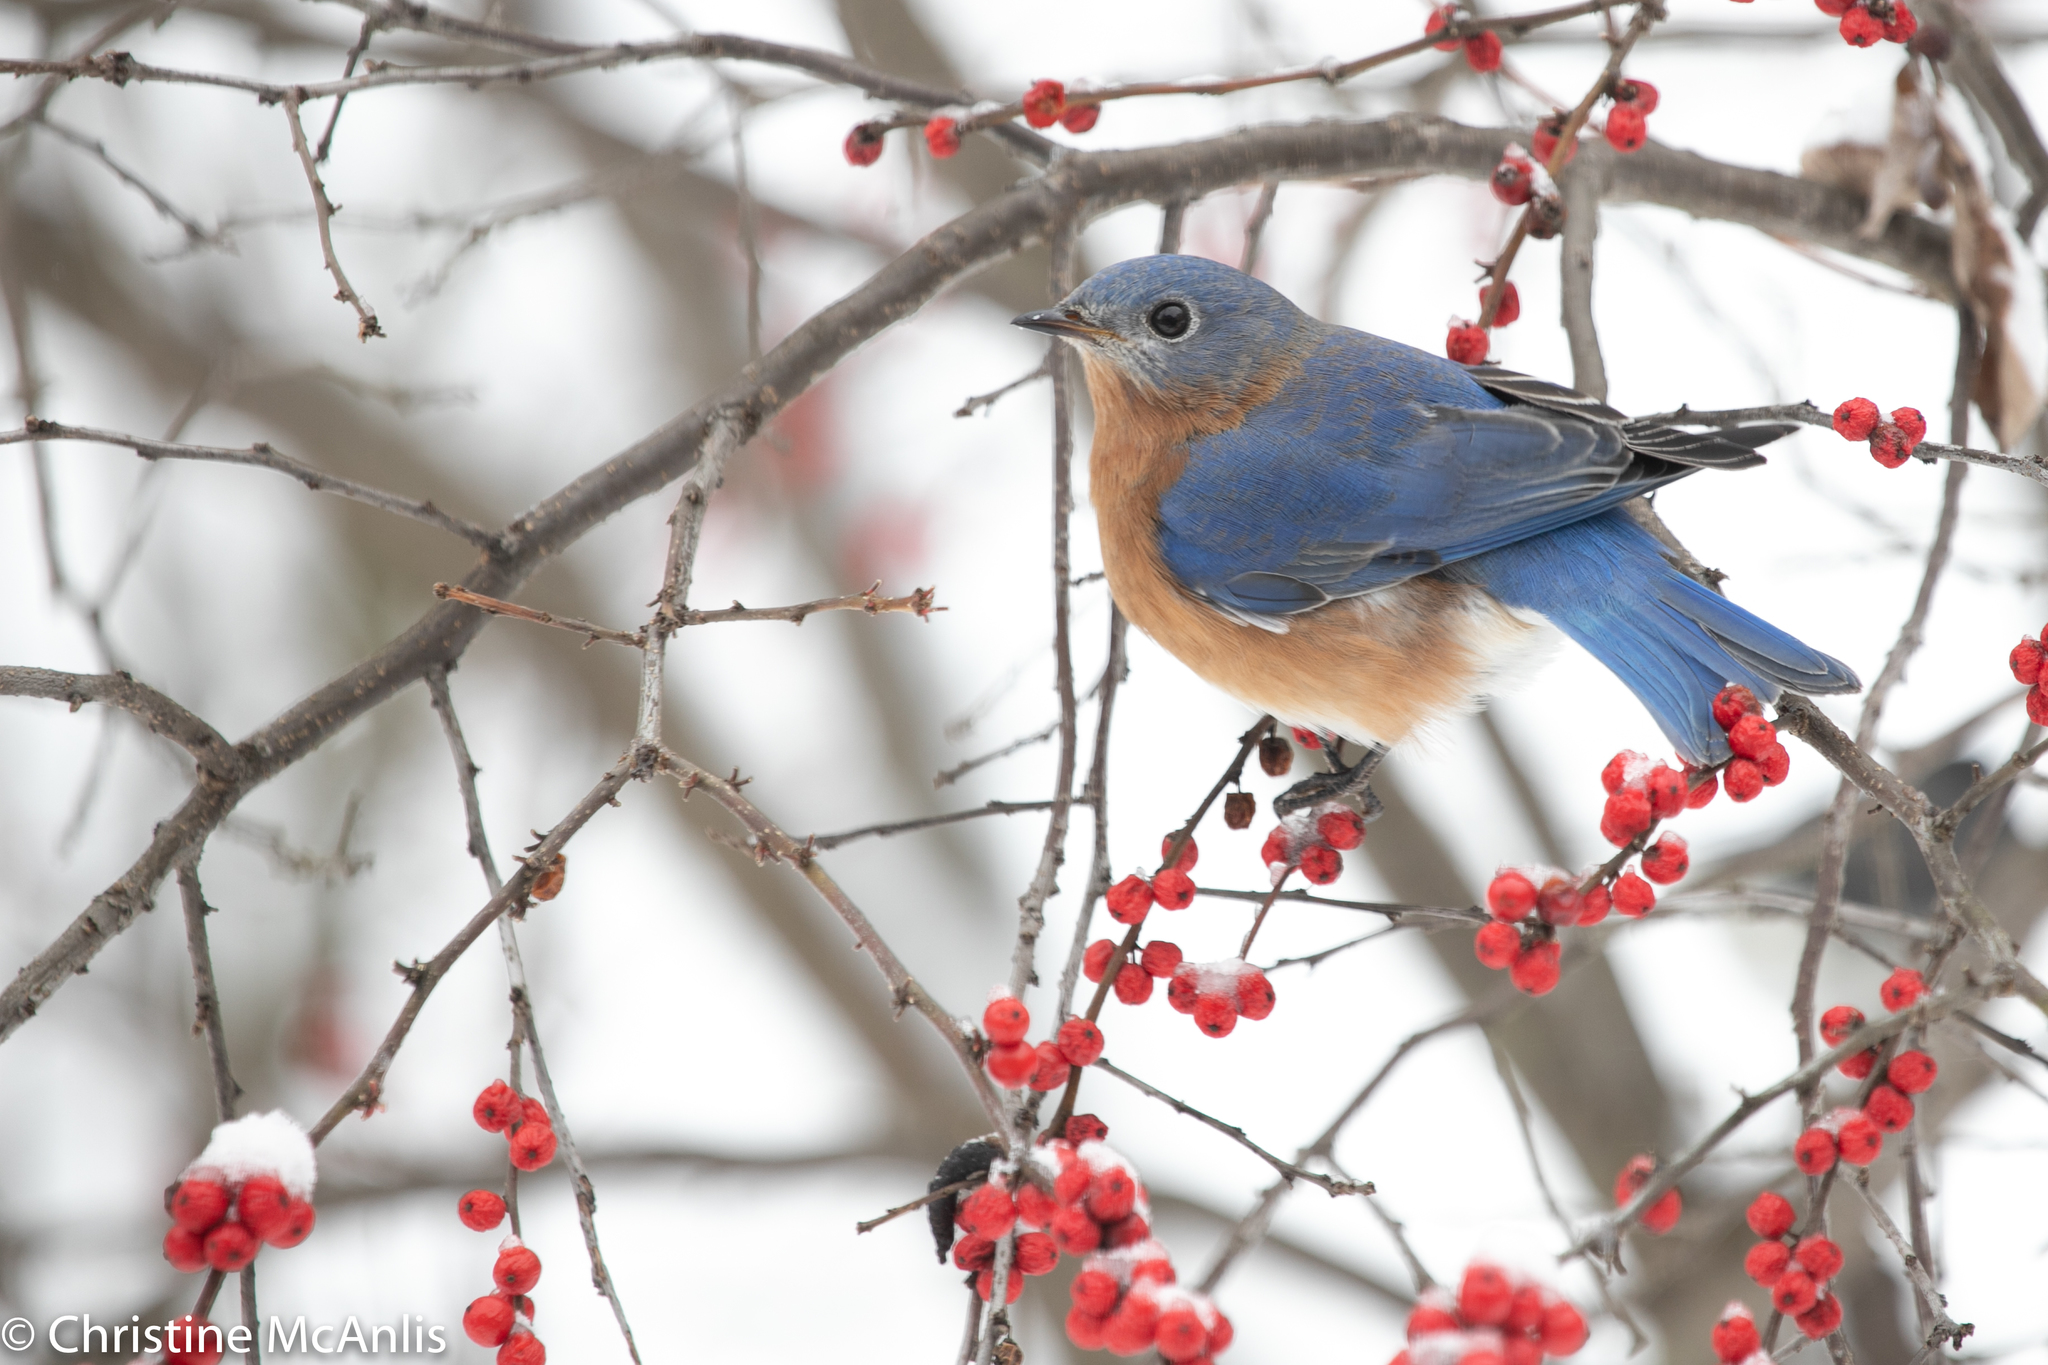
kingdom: Animalia
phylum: Chordata
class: Aves
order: Passeriformes
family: Turdidae
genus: Sialia
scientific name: Sialia sialis
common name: Eastern bluebird
